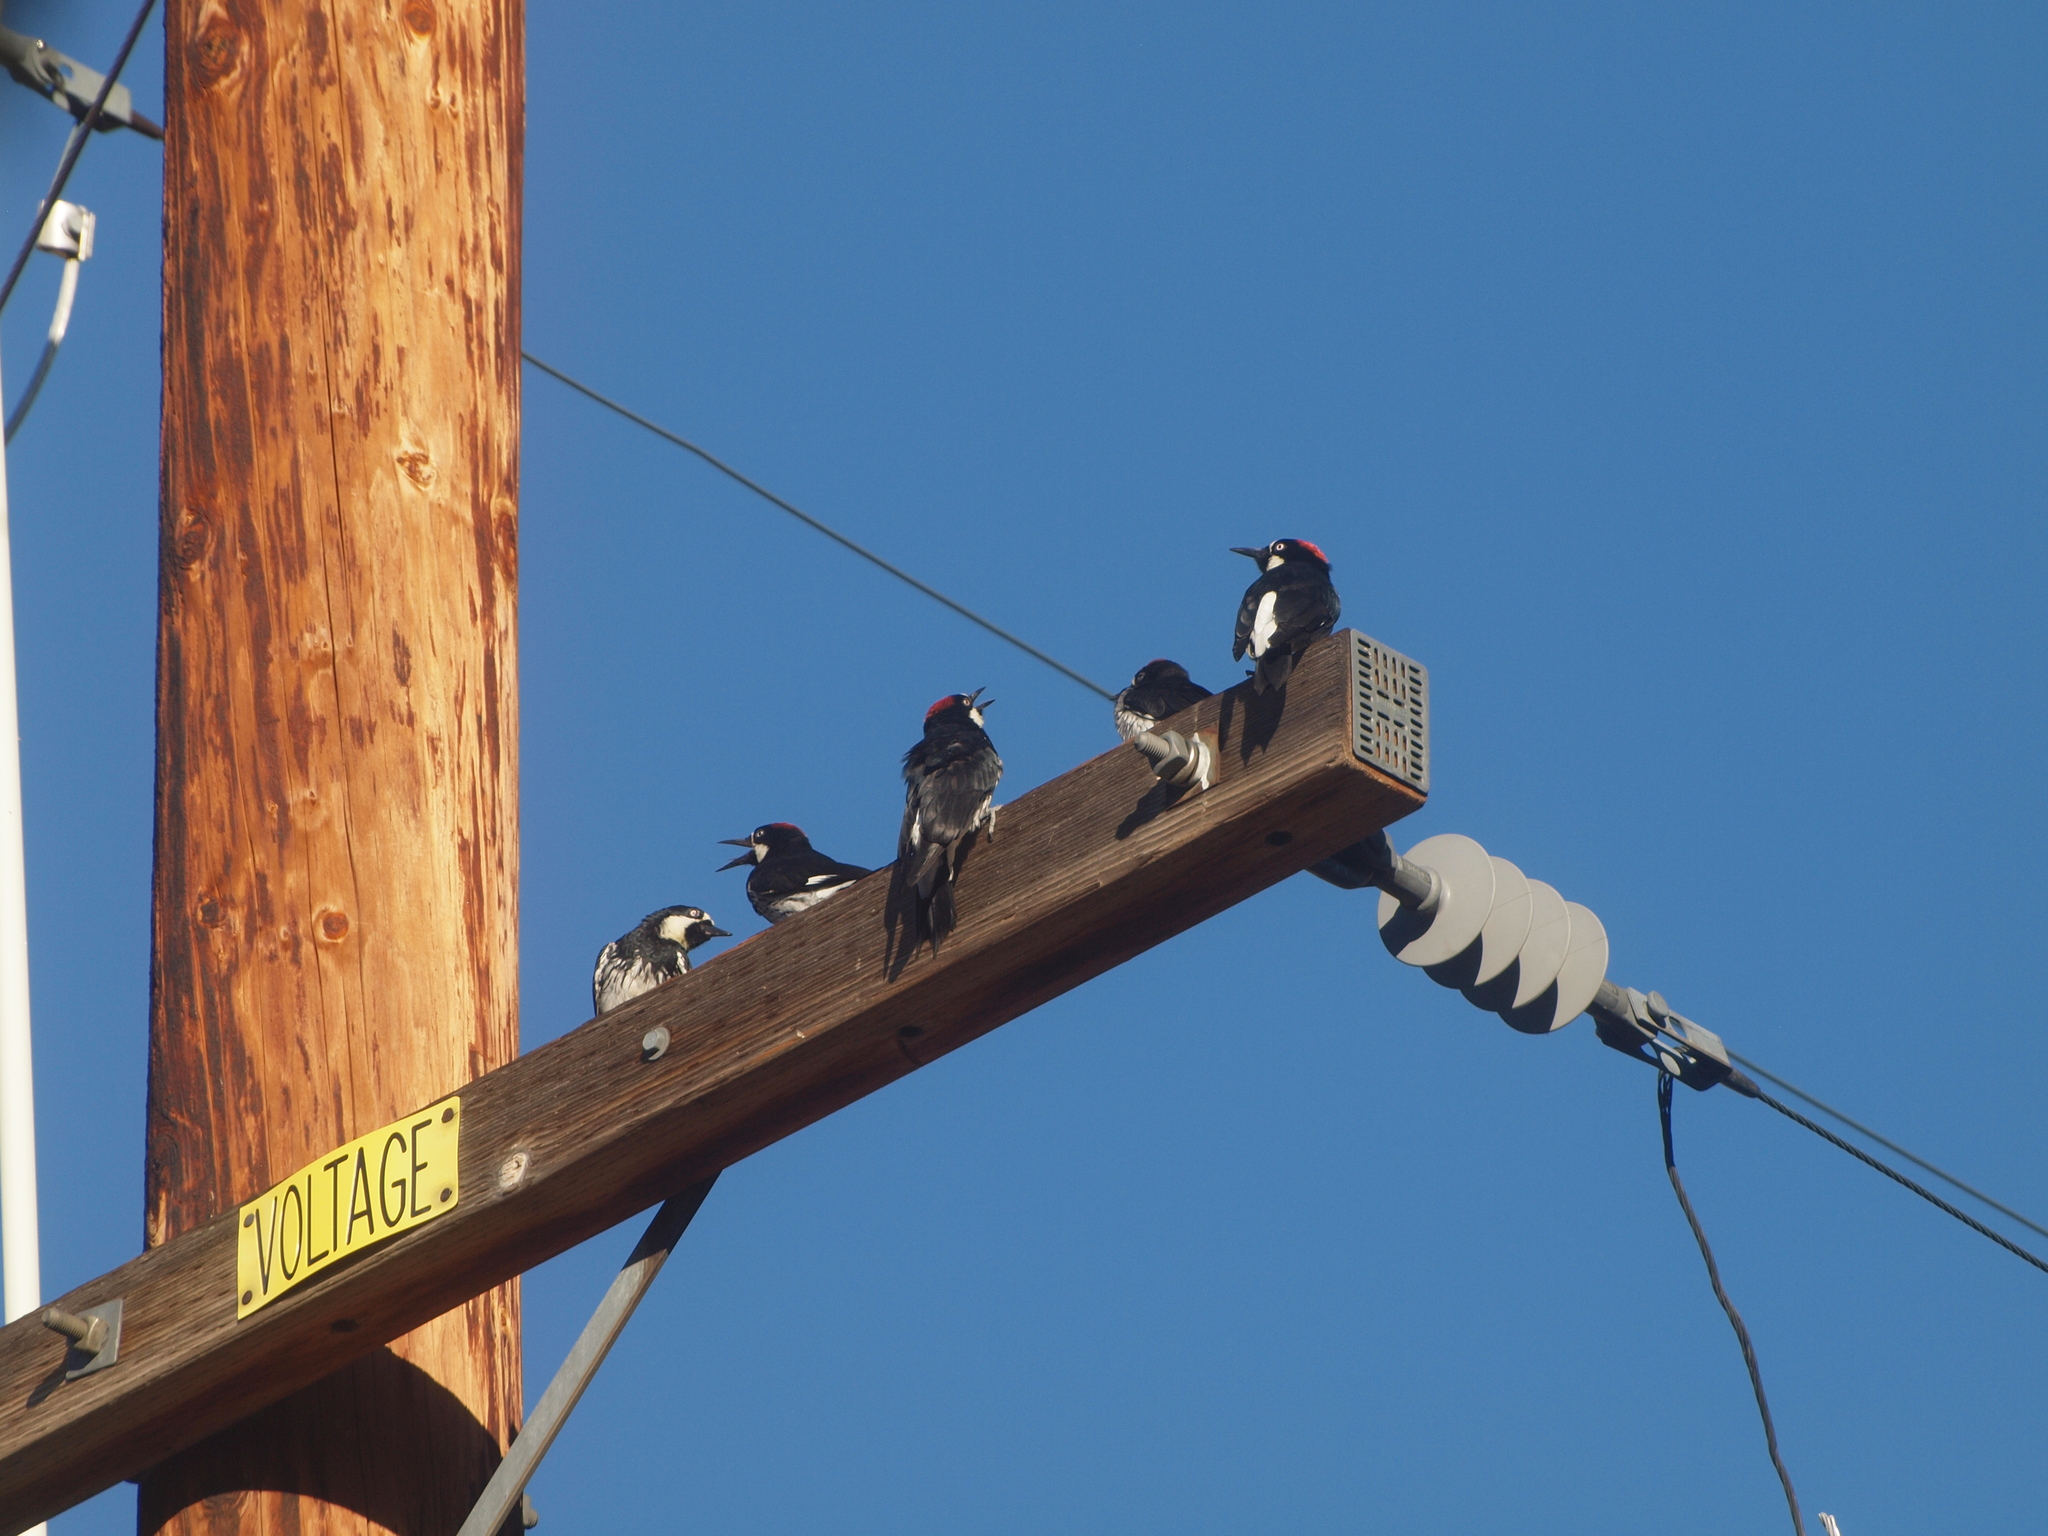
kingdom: Animalia
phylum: Chordata
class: Aves
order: Piciformes
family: Picidae
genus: Melanerpes
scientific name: Melanerpes formicivorus
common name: Acorn woodpecker
